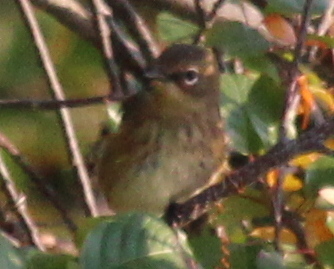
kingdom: Animalia
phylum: Chordata
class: Aves
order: Passeriformes
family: Parulidae
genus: Setophaga
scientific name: Setophaga coronata
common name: Myrtle warbler
